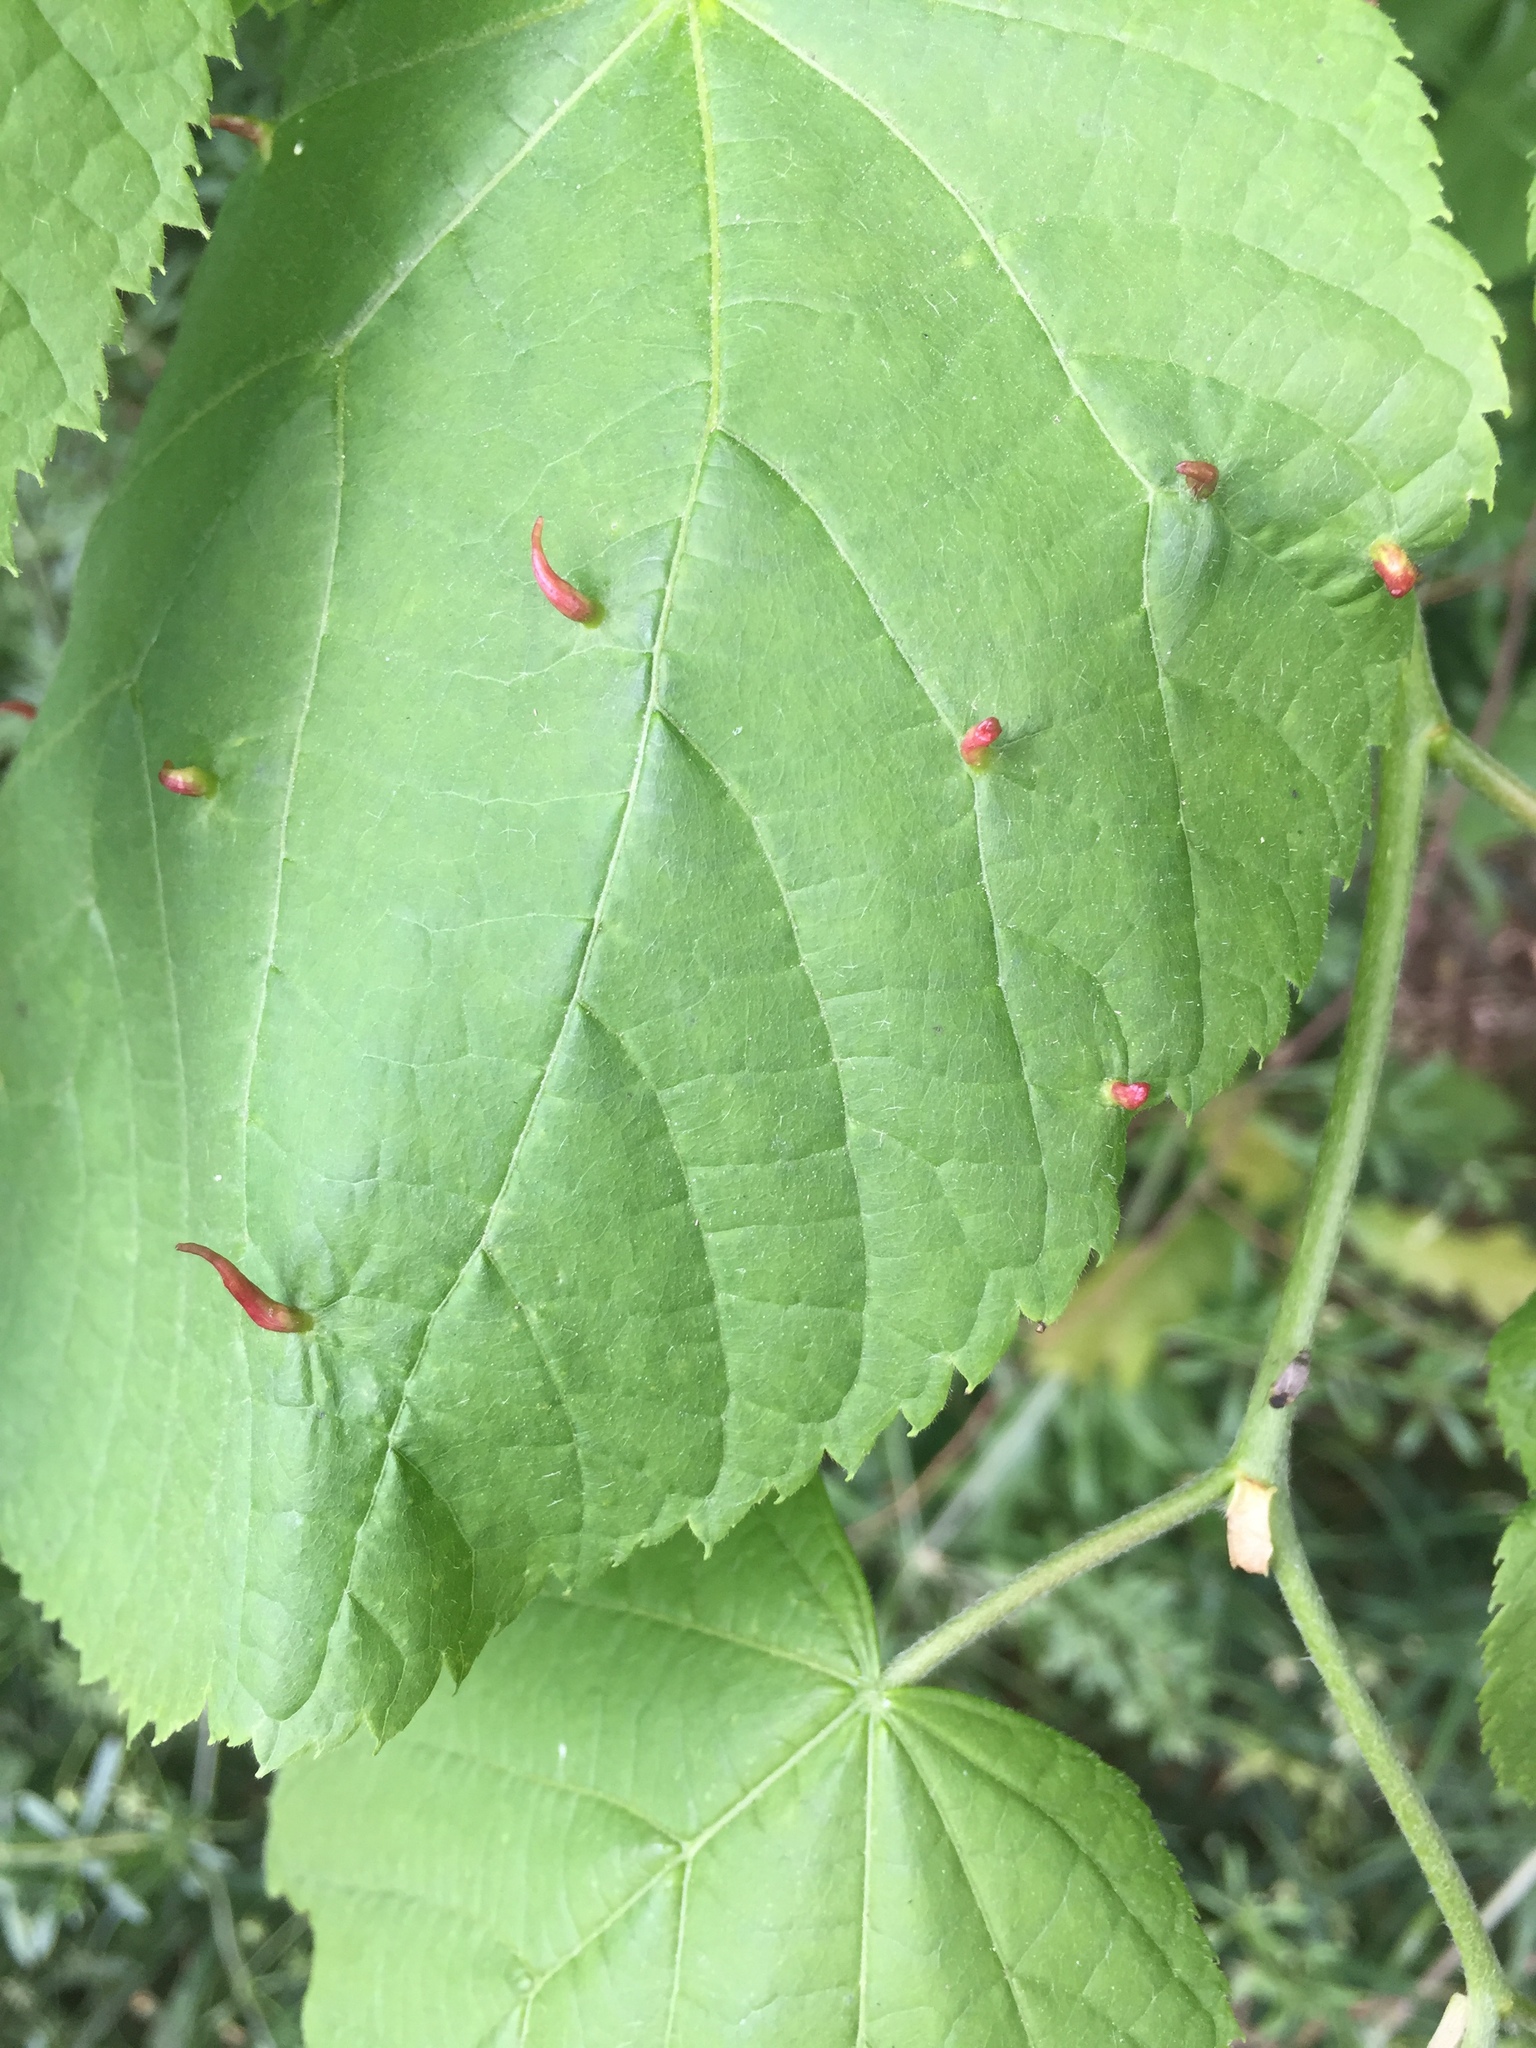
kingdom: Animalia
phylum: Arthropoda
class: Arachnida
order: Trombidiformes
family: Eriophyidae
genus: Eriophyes
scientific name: Eriophyes tiliae
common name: Red nail gall mite
